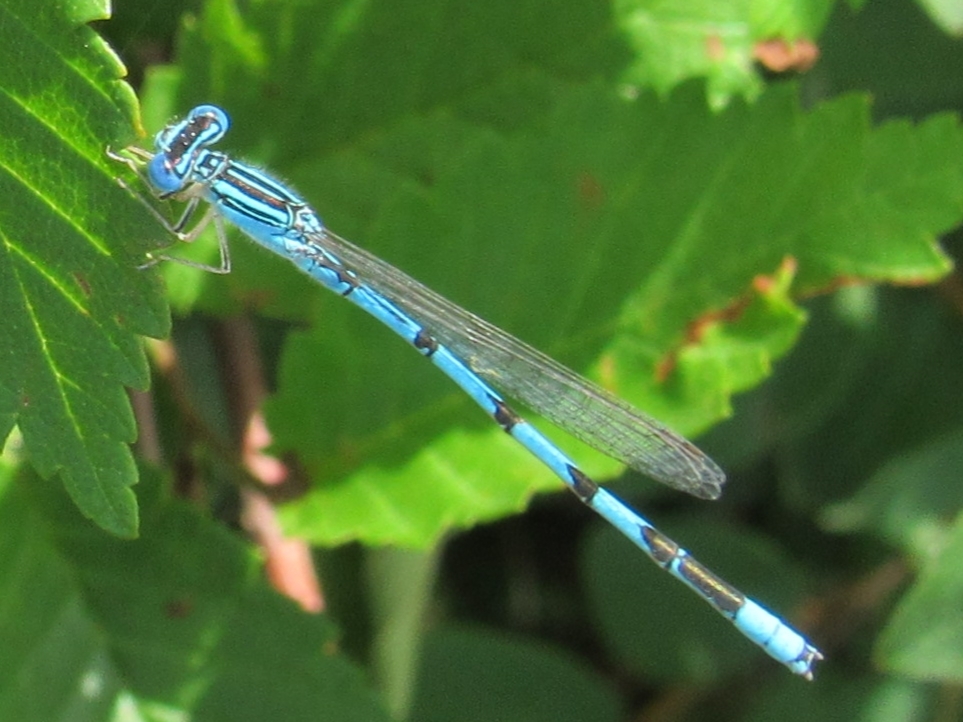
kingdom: Animalia
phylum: Arthropoda
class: Insecta
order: Odonata
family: Coenagrionidae
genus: Enallagma
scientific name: Enallagma basidens
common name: Double-striped bluet
